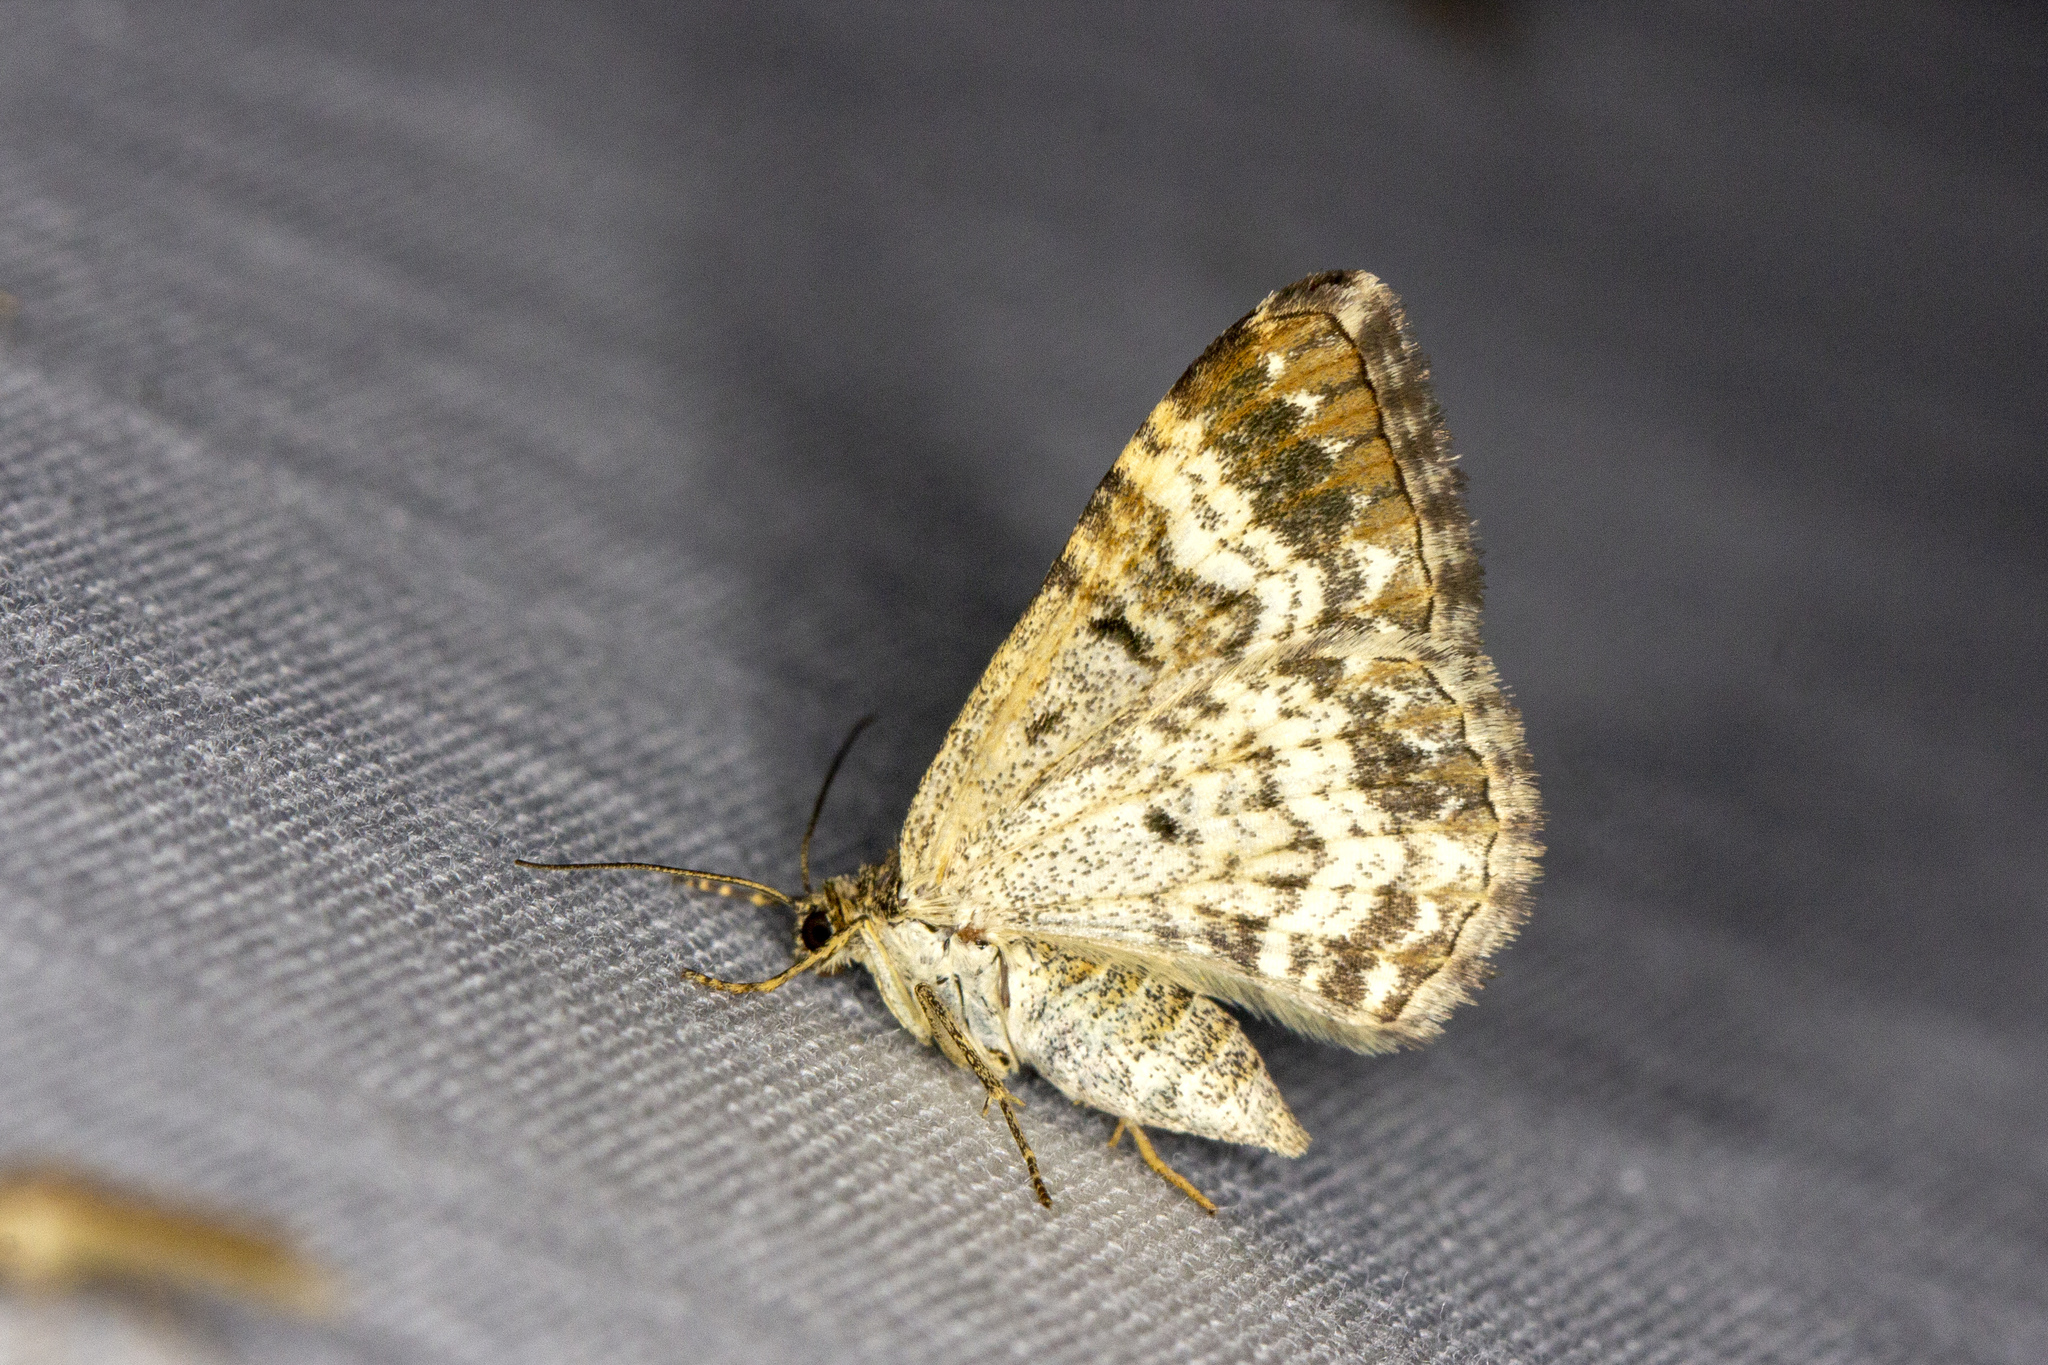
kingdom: Animalia
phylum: Arthropoda
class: Insecta
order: Lepidoptera
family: Geometridae
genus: Epirrhoe
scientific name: Epirrhoe alternata
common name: Common carpet
